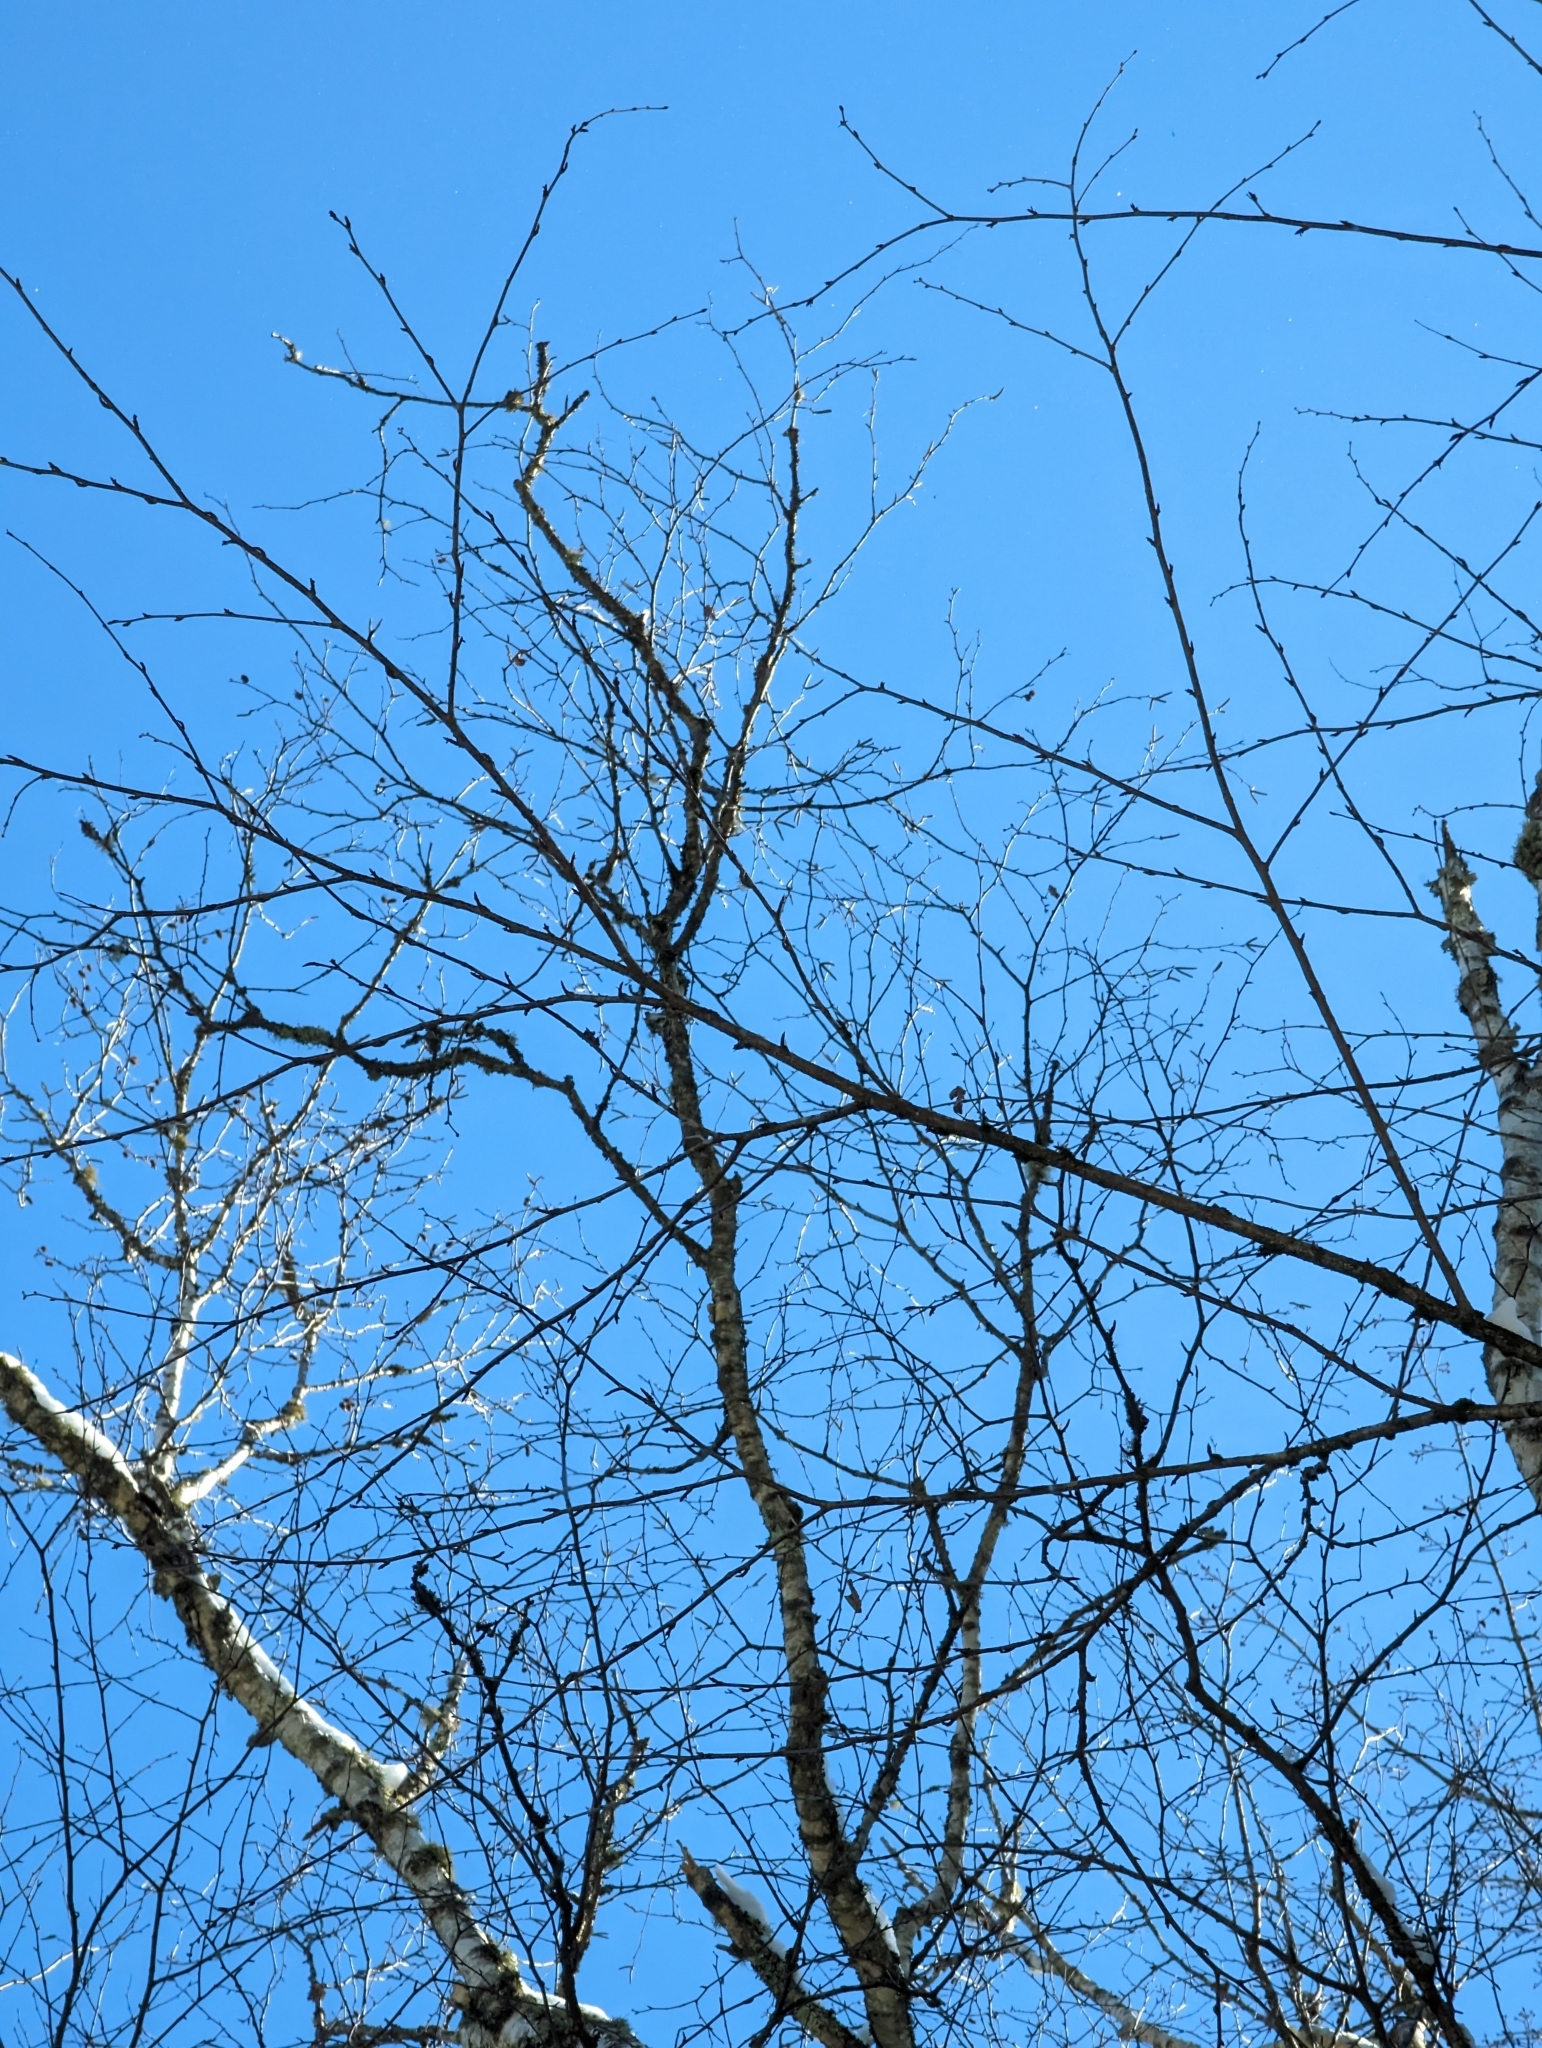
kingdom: Plantae
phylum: Tracheophyta
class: Magnoliopsida
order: Fagales
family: Betulaceae
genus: Betula
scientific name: Betula papyrifera
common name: Paper birch
